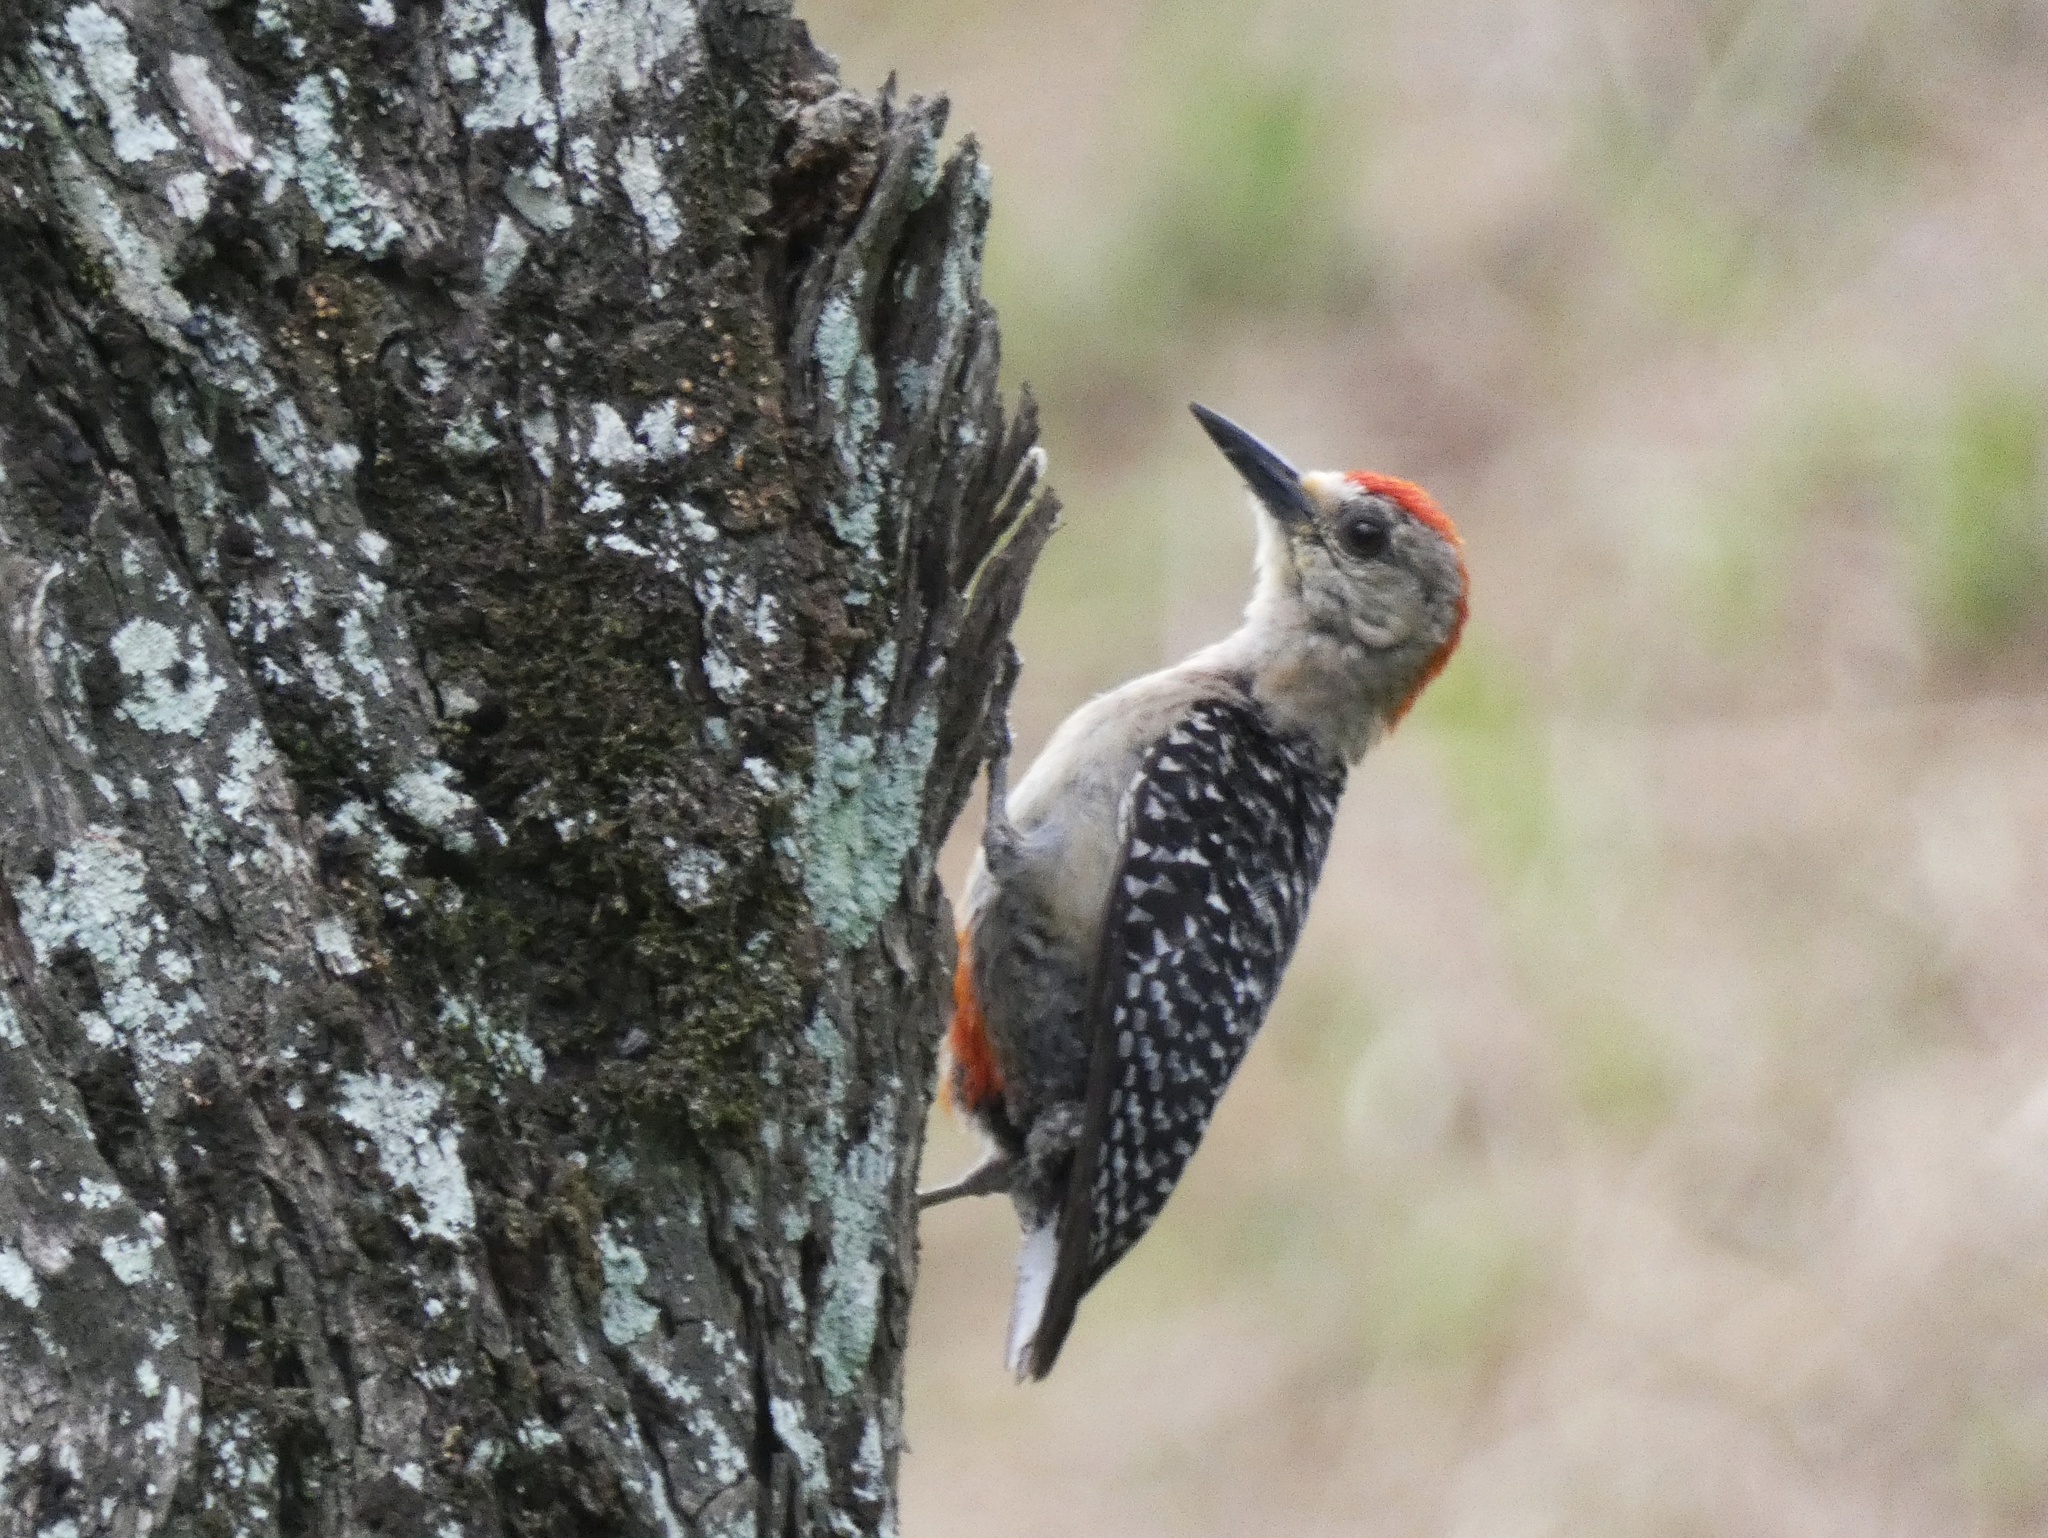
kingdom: Animalia
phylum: Chordata
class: Aves
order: Piciformes
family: Picidae
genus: Melanerpes
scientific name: Melanerpes rubricapillus
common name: Red-crowned woodpecker
